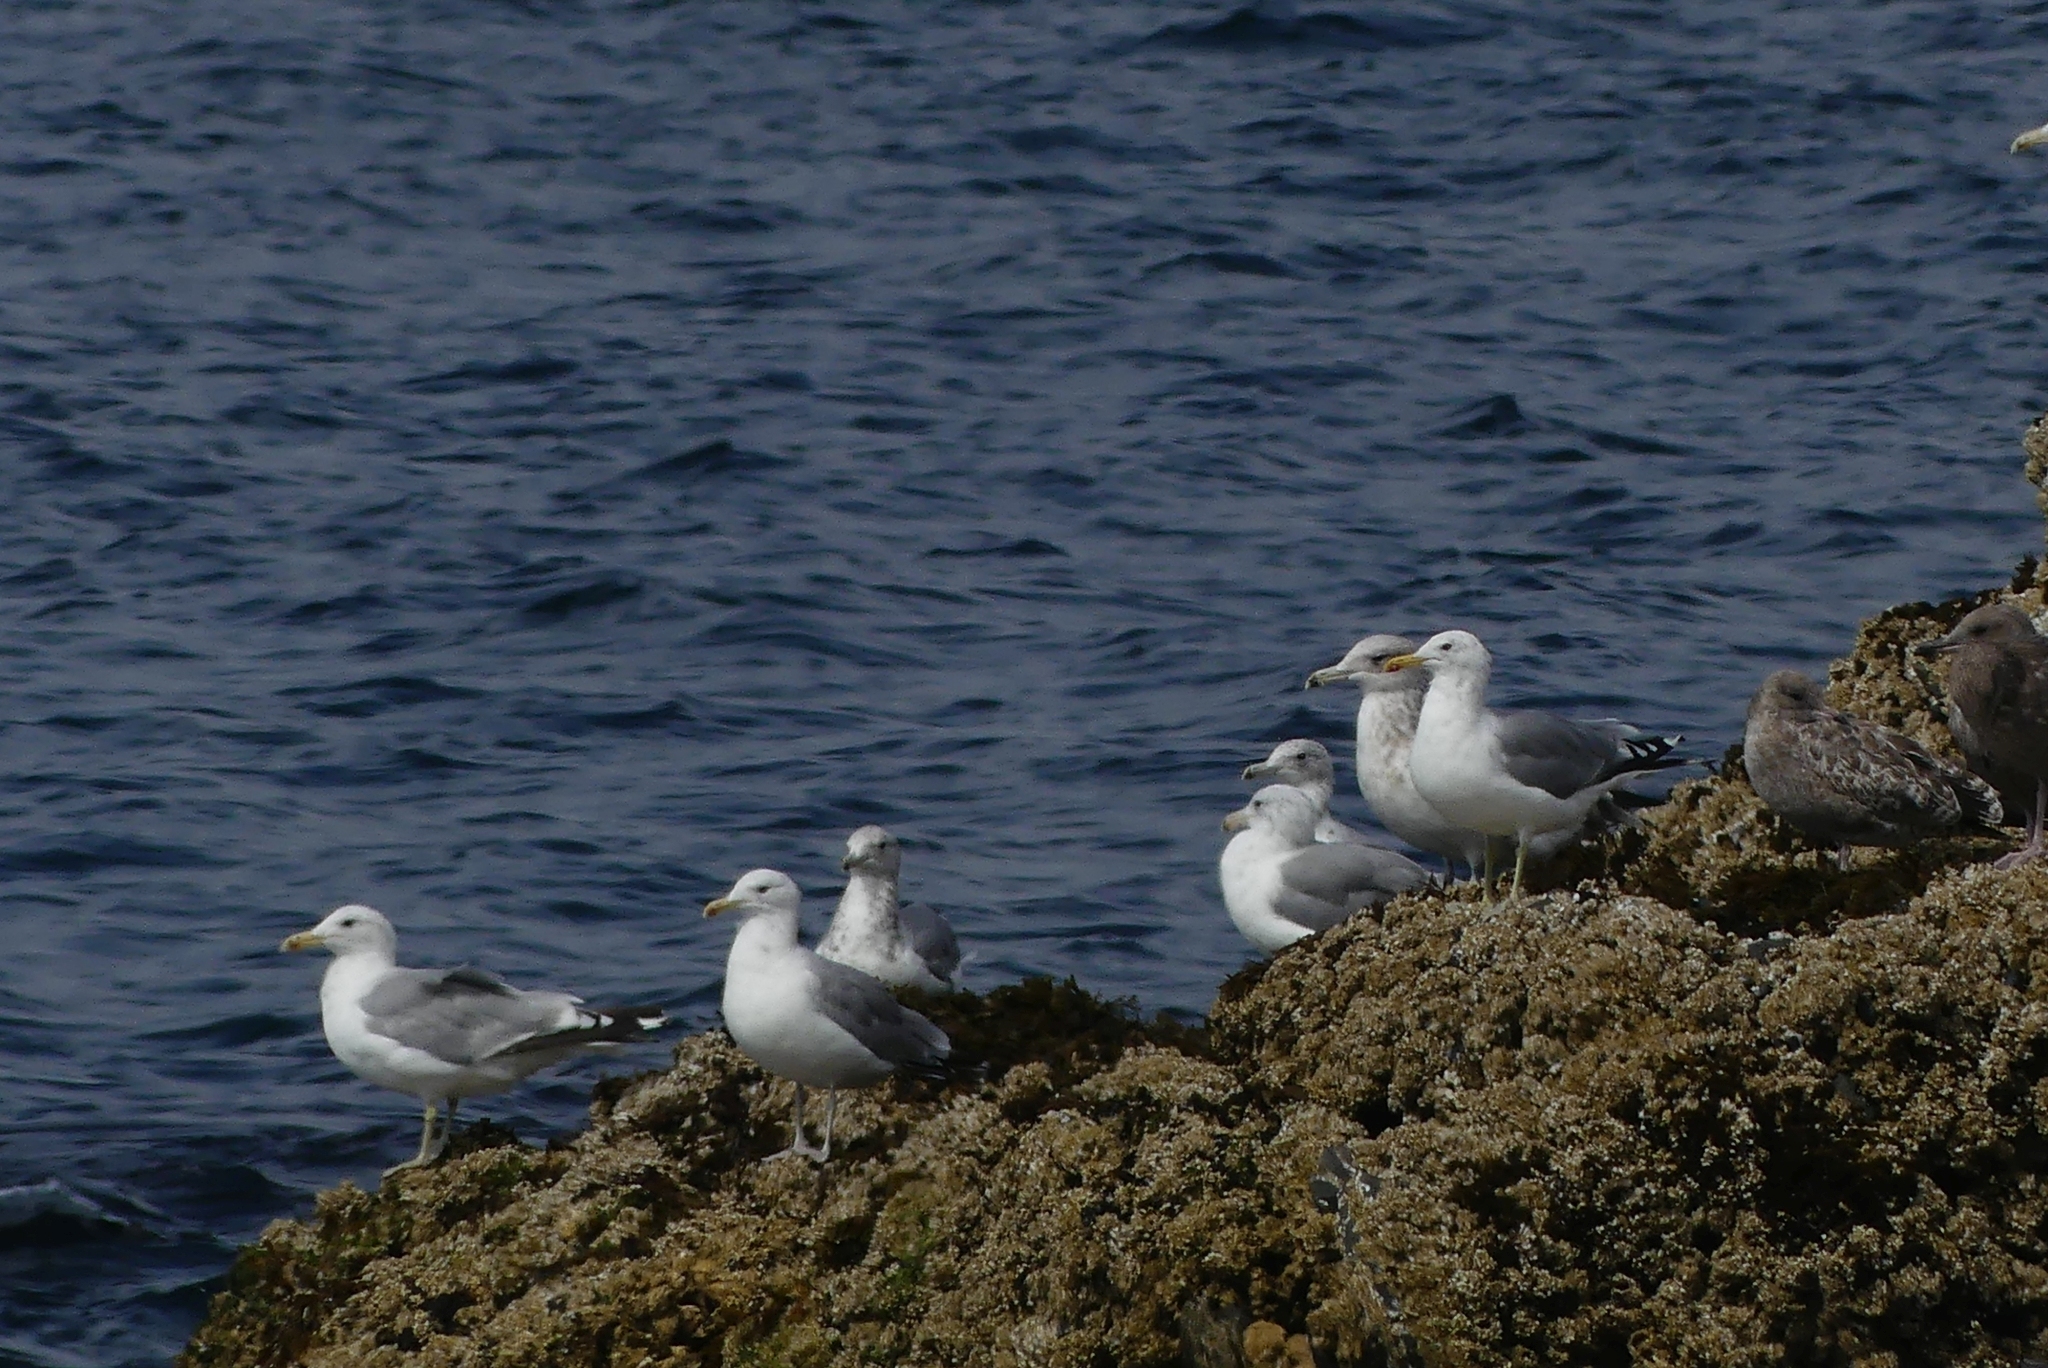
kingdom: Animalia
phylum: Chordata
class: Aves
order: Charadriiformes
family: Laridae
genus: Larus
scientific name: Larus californicus
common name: California gull
